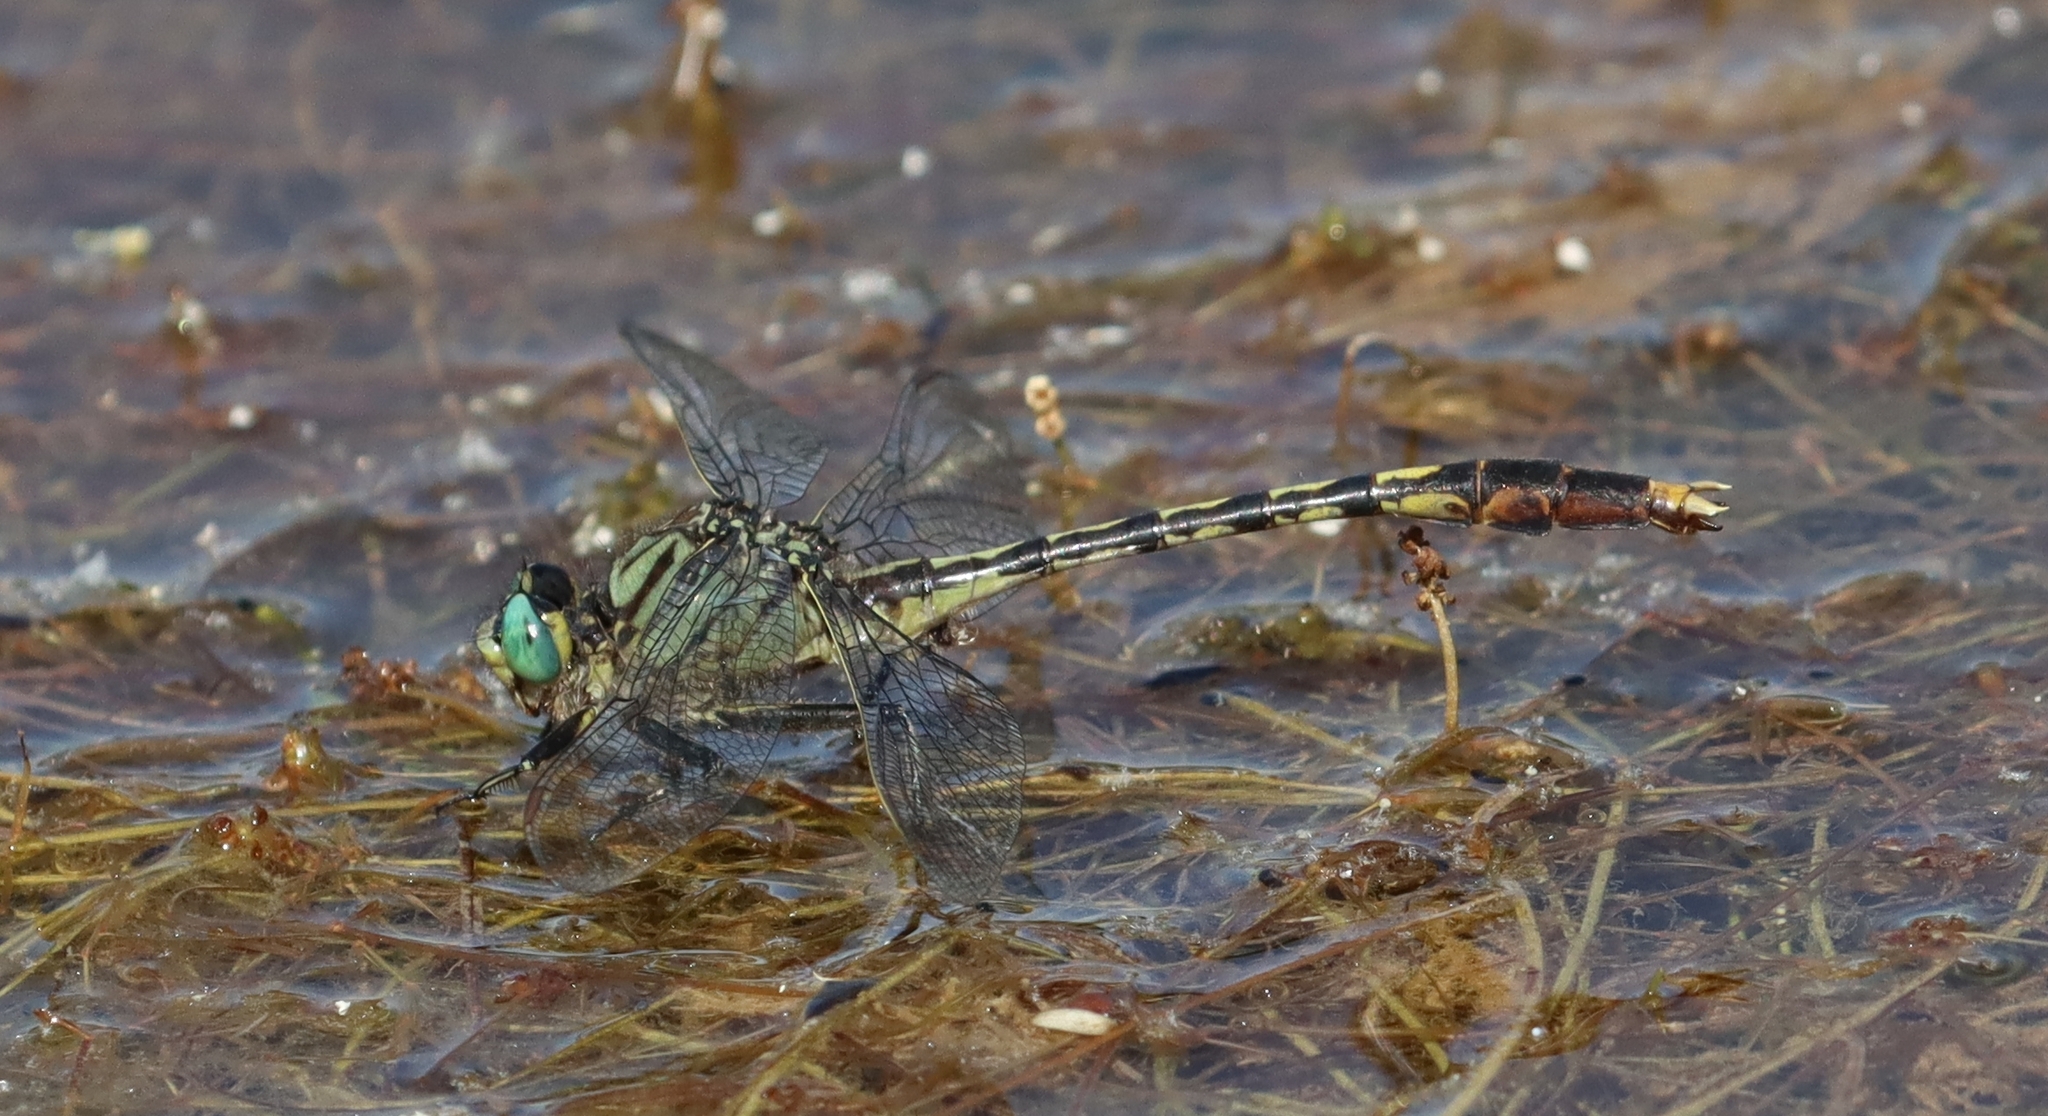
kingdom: Animalia
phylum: Arthropoda
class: Insecta
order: Odonata
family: Gomphidae
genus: Arigomphus
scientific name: Arigomphus villosipes
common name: Unicorn clubtail
